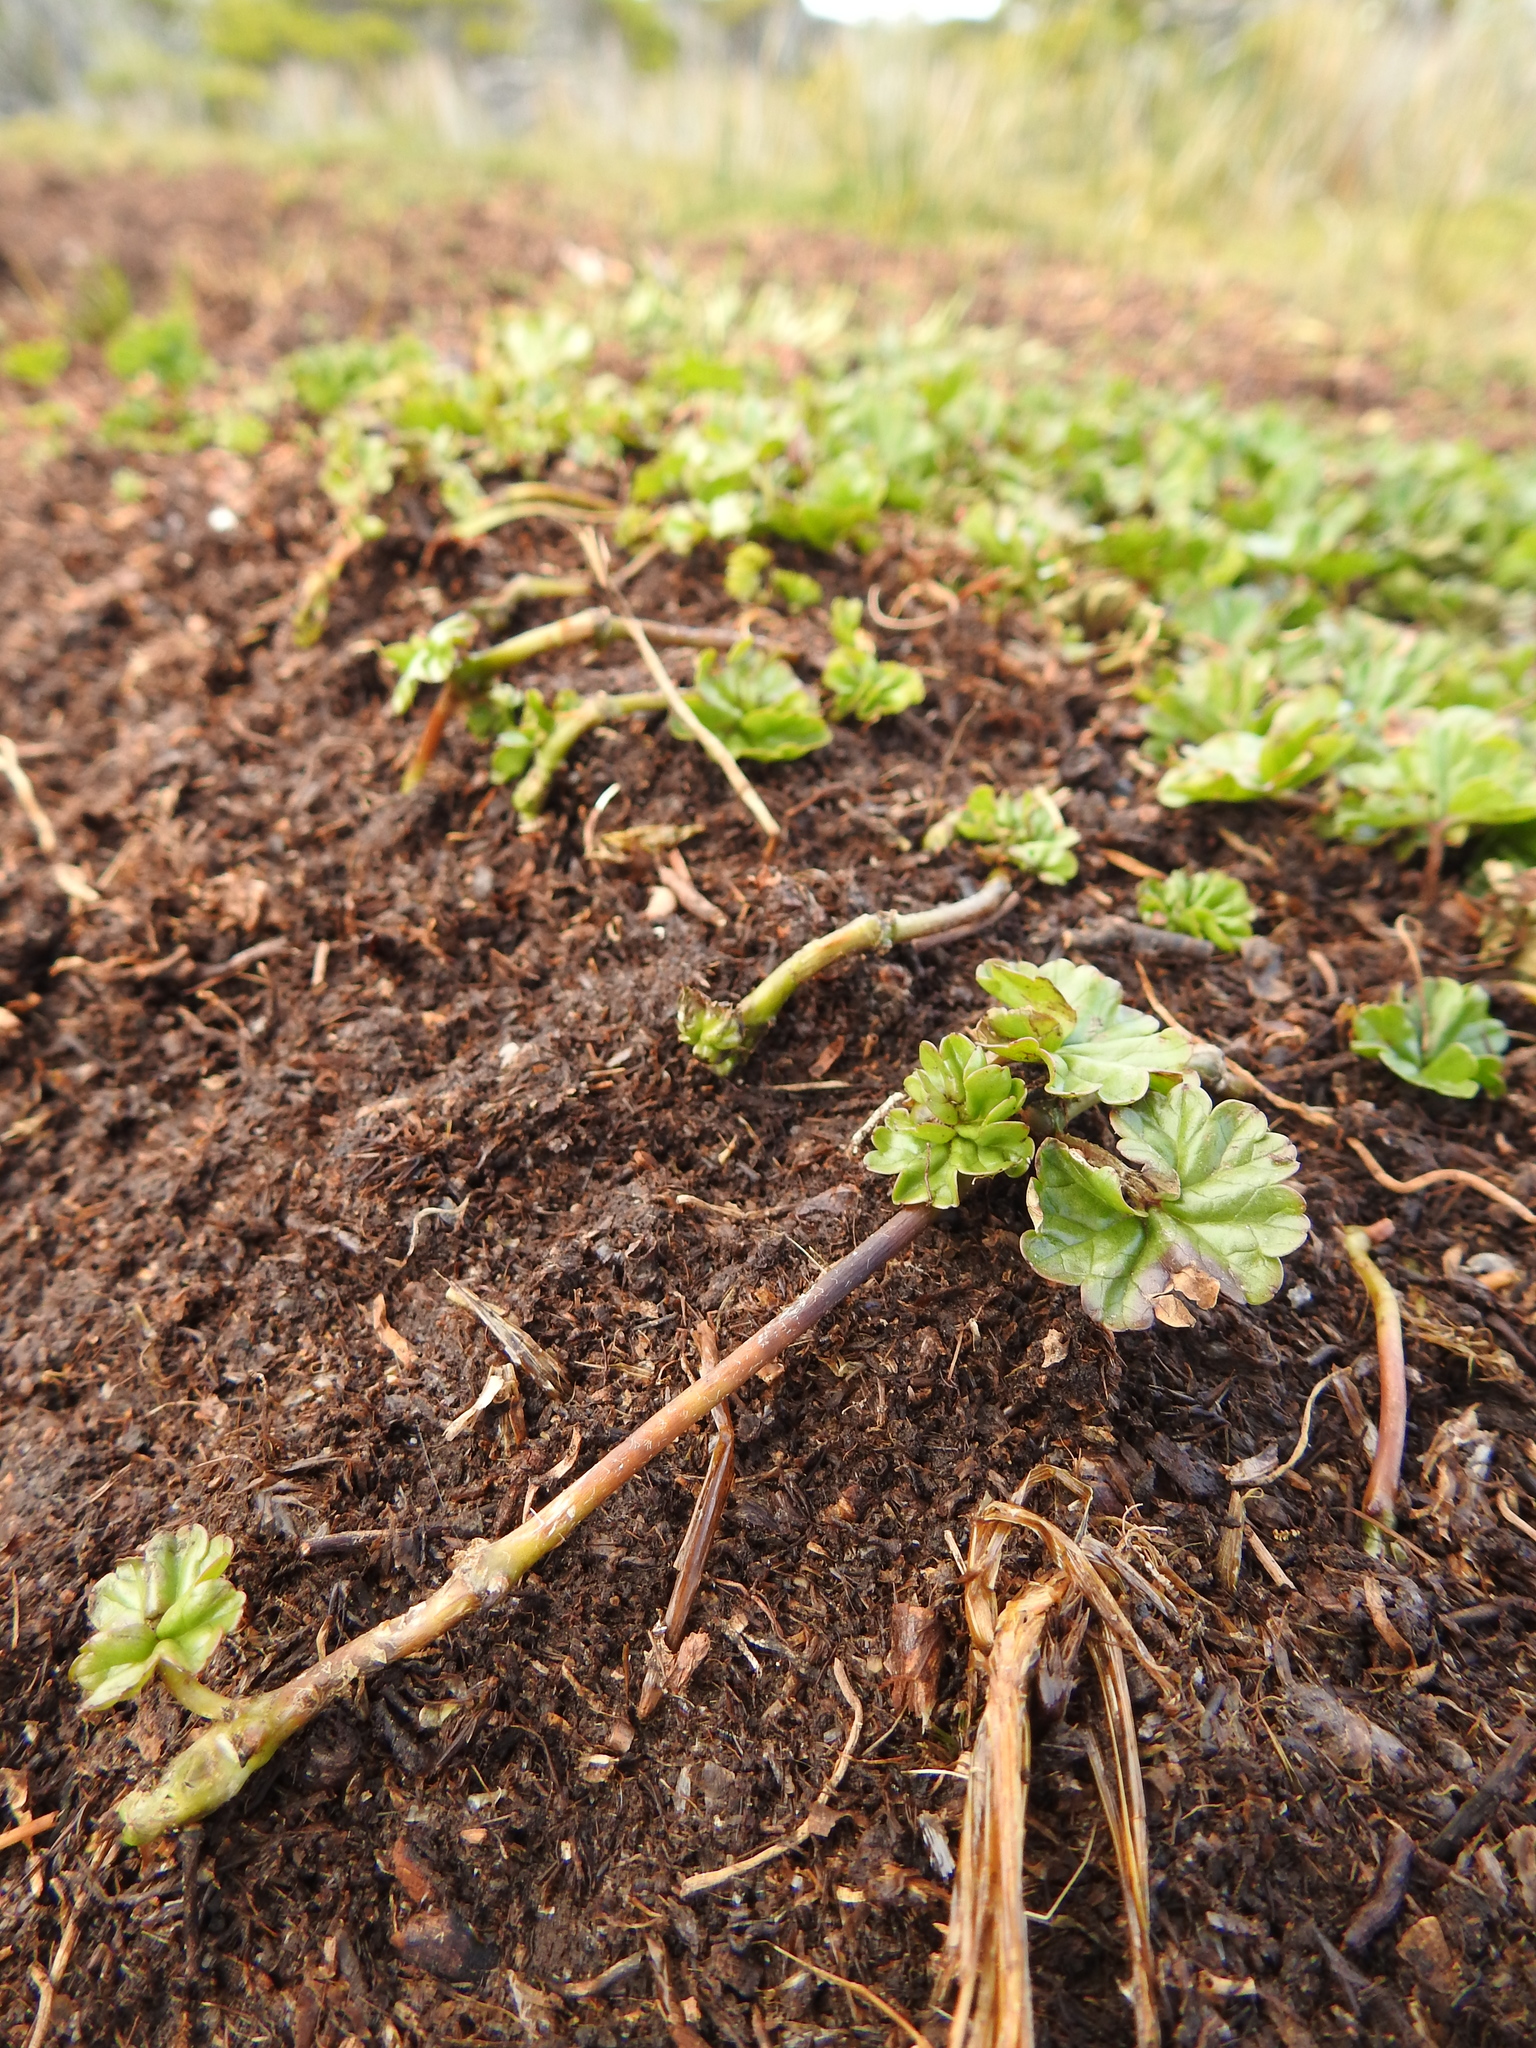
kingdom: Plantae
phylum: Tracheophyta
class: Magnoliopsida
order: Gunnerales
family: Gunneraceae
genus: Gunnera
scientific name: Gunnera magellanica
